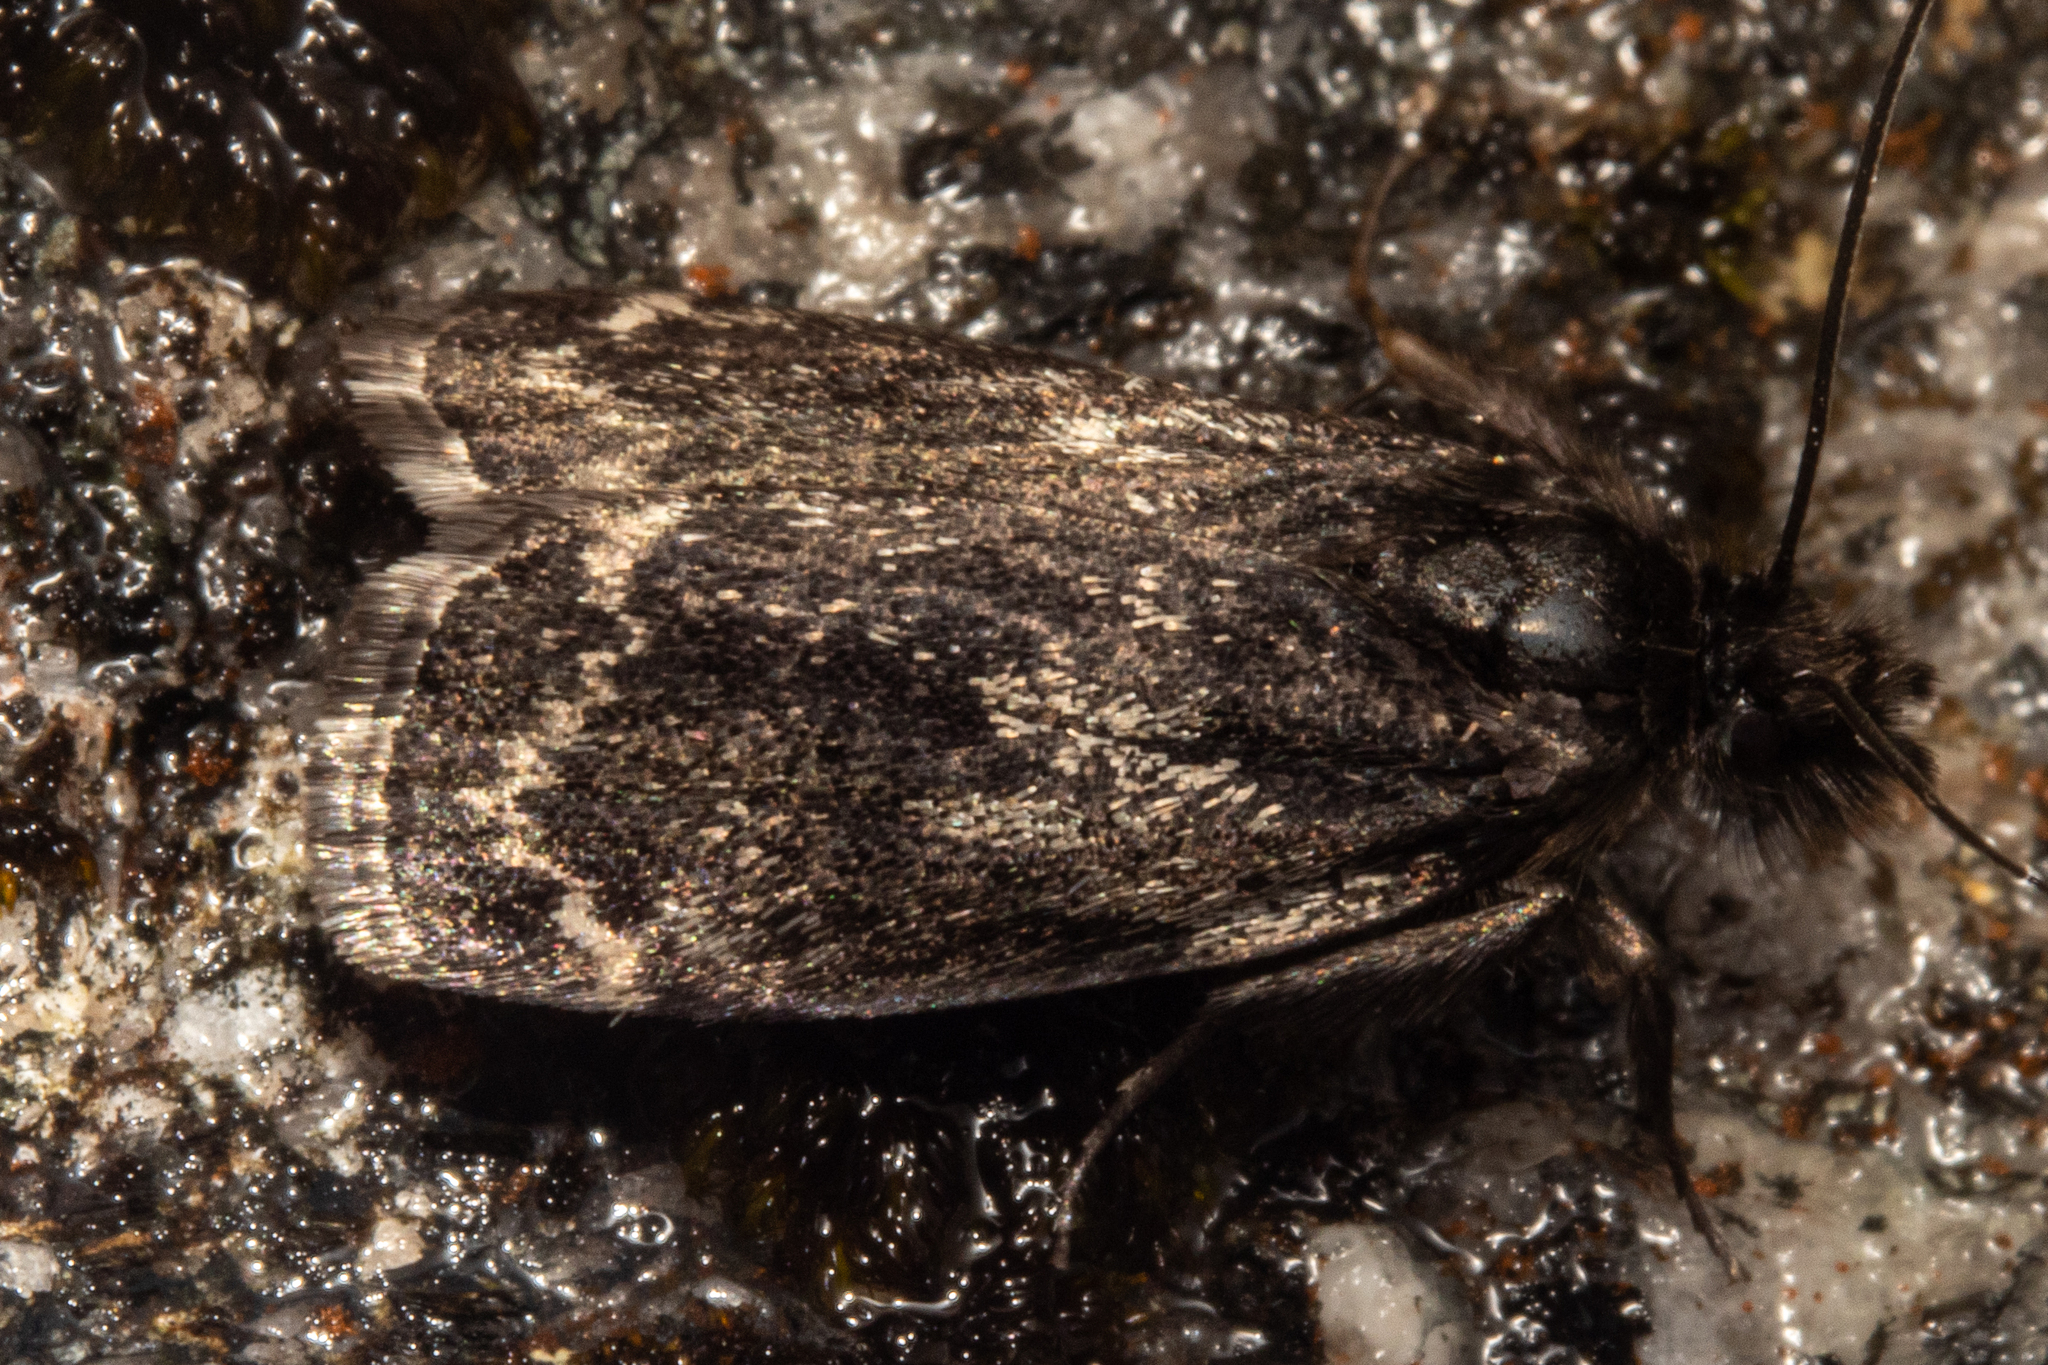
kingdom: Animalia
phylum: Arthropoda
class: Insecta
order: Lepidoptera
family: Crambidae
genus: Orocrambus
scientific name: Orocrambus clarkei
